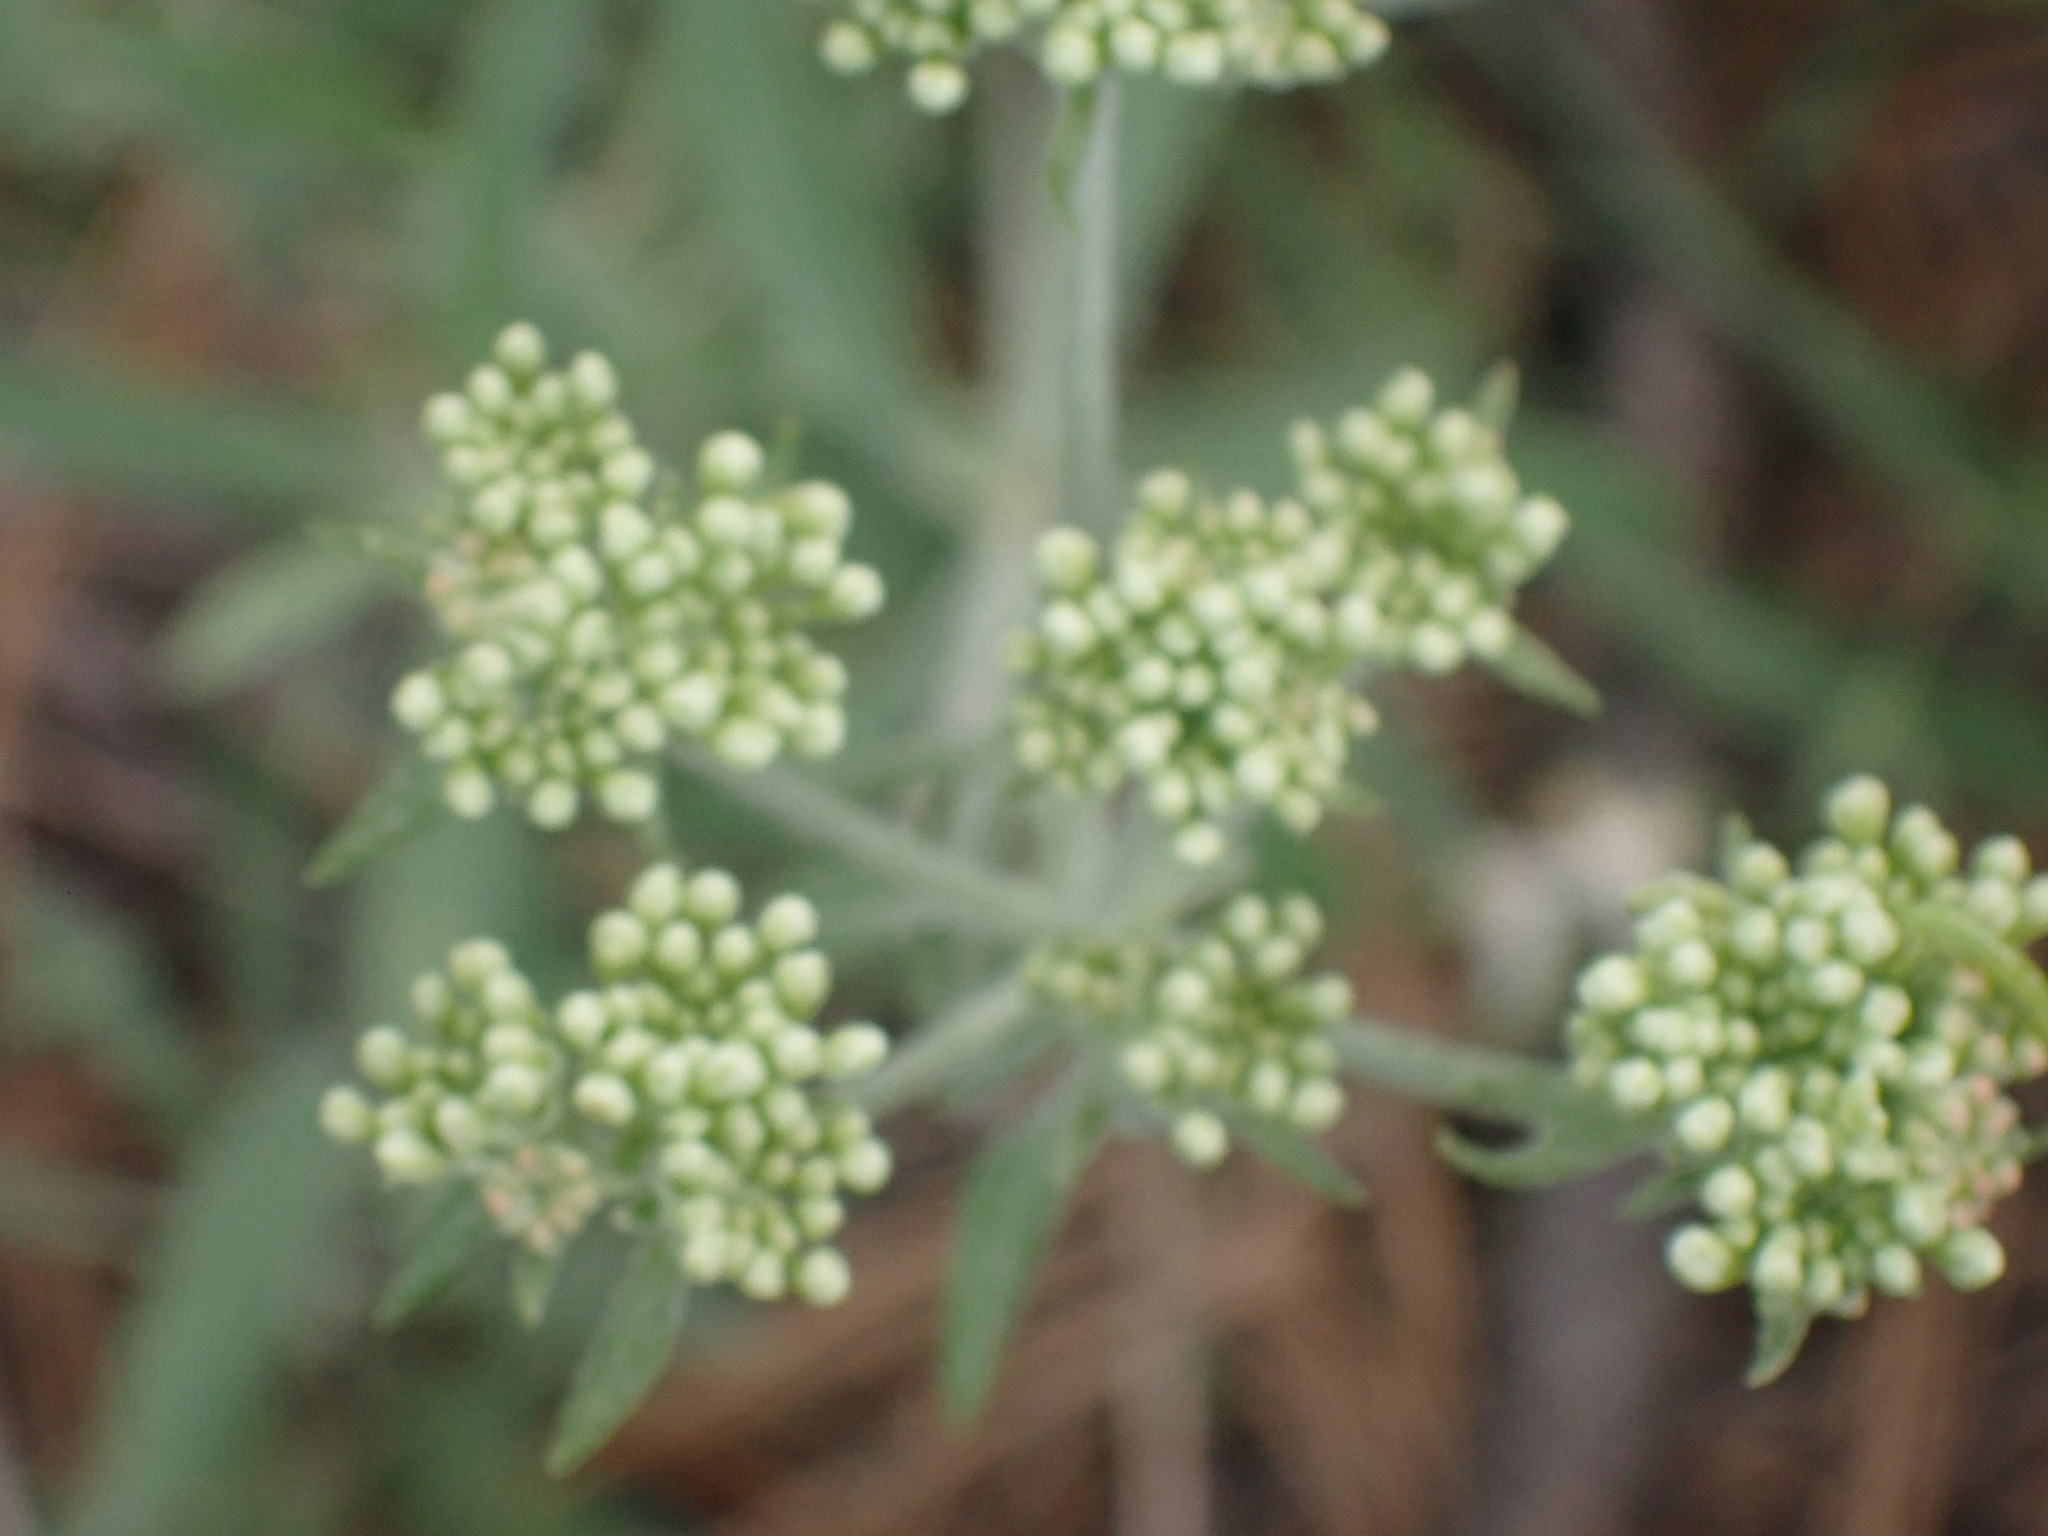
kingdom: Plantae
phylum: Tracheophyta
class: Magnoliopsida
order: Caryophyllales
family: Polygonaceae
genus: Eriogonum
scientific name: Eriogonum heracleoides
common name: Wyeth's buckwheat
